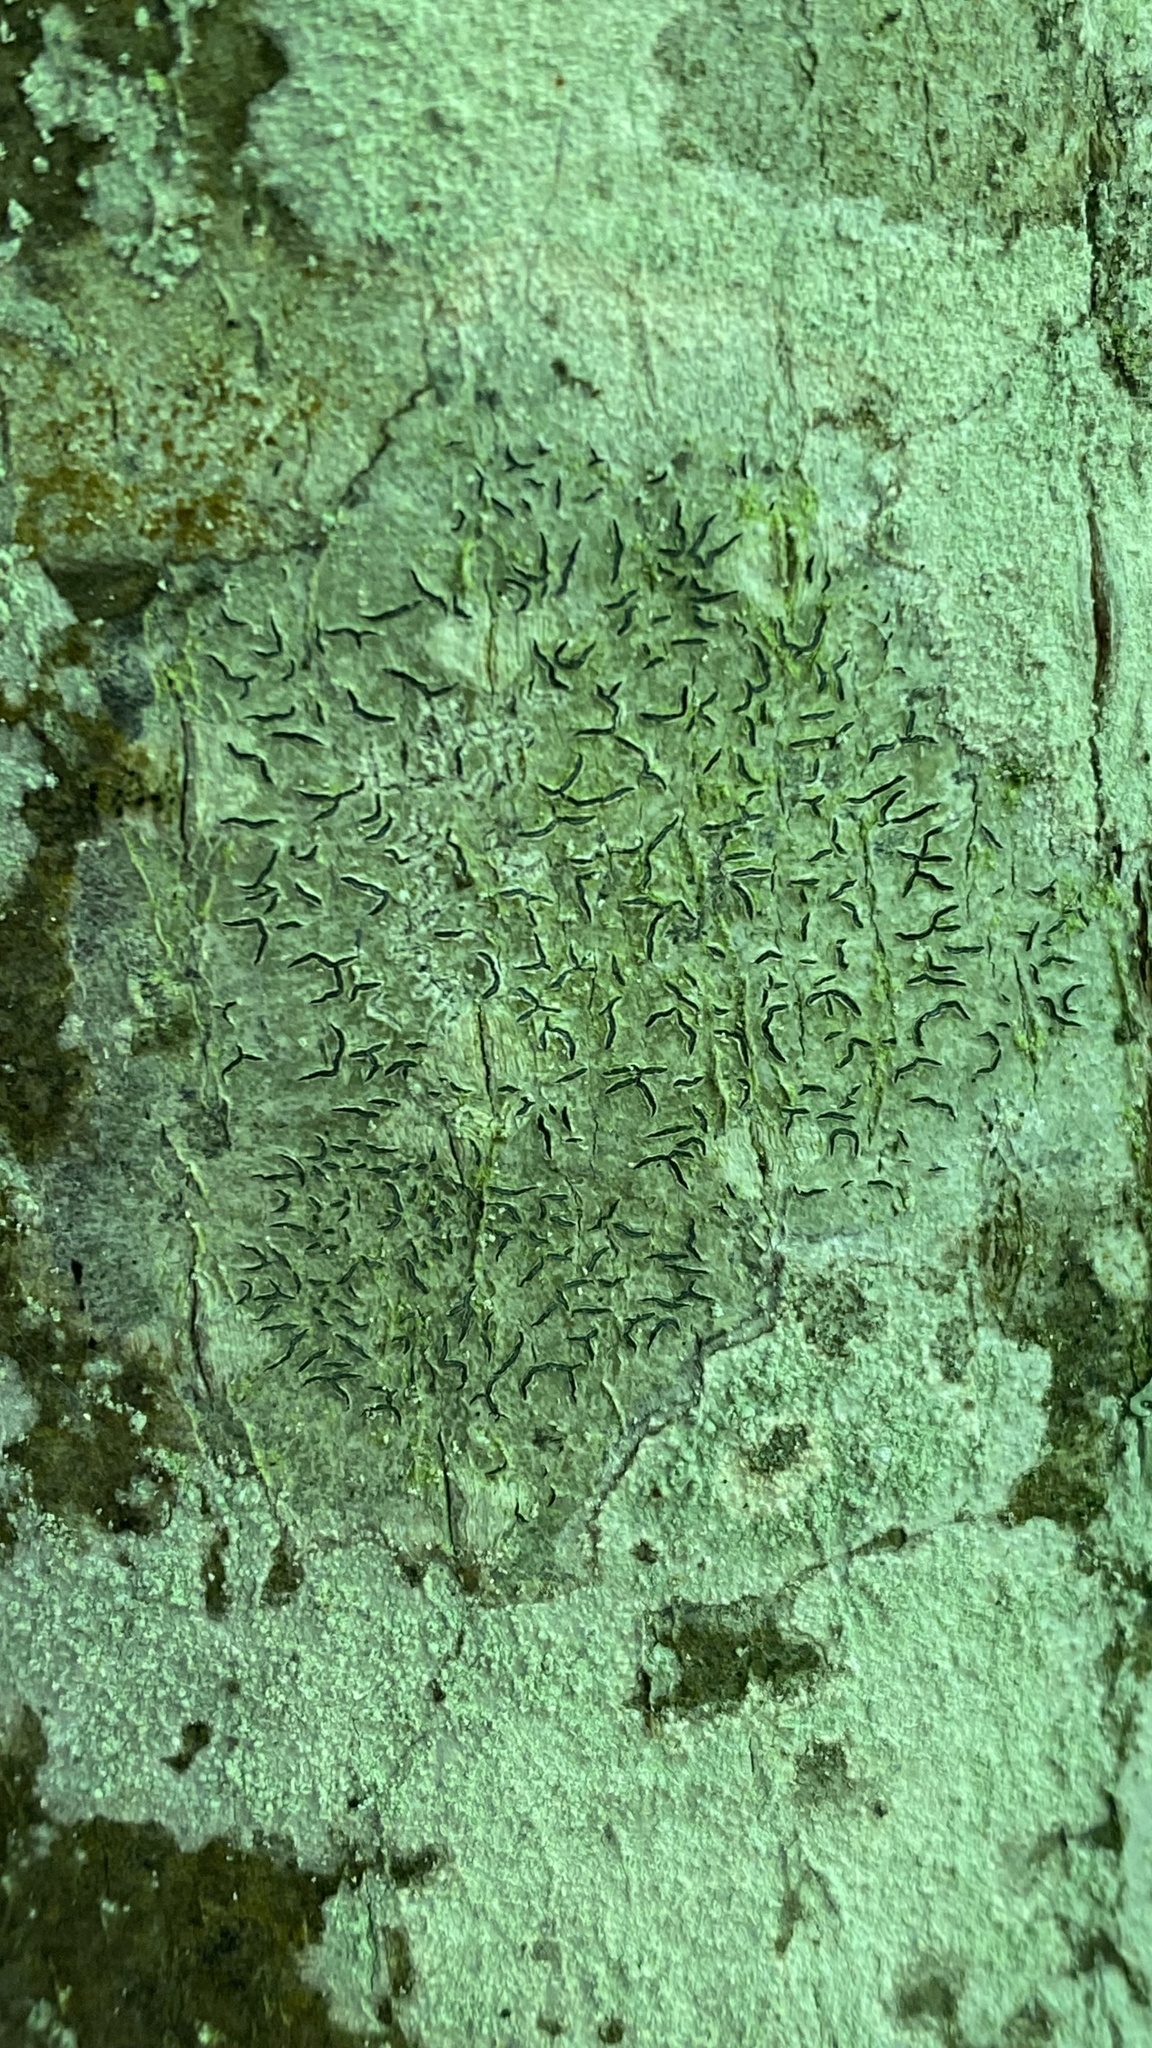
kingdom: Fungi
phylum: Ascomycota
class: Lecanoromycetes
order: Ostropales
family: Graphidaceae
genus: Graphis
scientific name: Graphis scripta
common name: Script lichen
